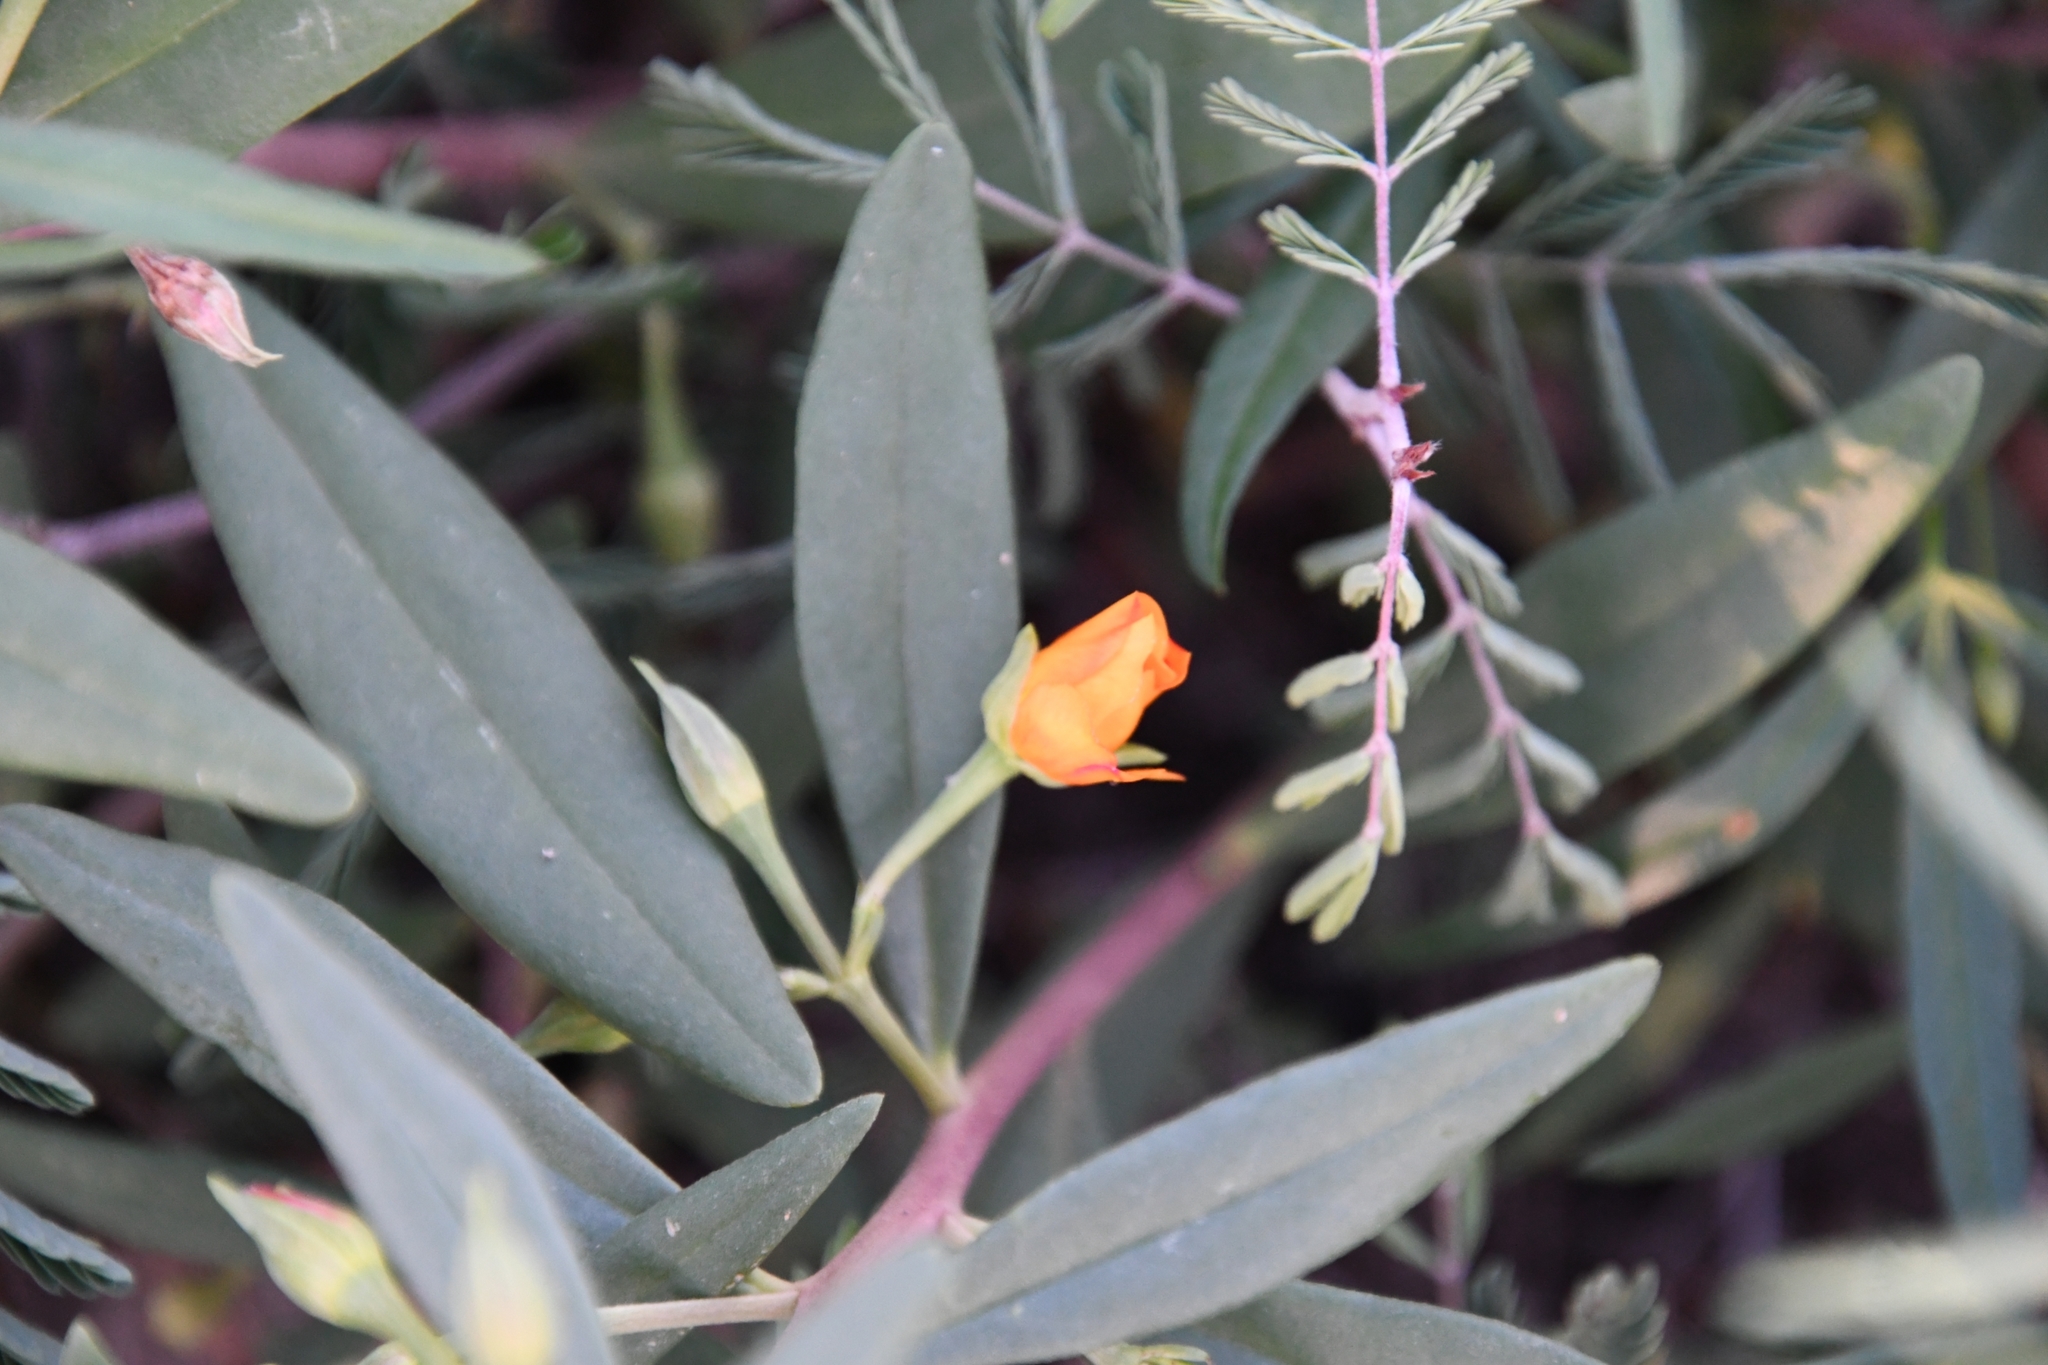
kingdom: Plantae
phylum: Tracheophyta
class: Magnoliopsida
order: Caryophyllales
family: Montiaceae
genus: Phemeranthus
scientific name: Phemeranthus aurantiacus
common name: Orange fameflower
